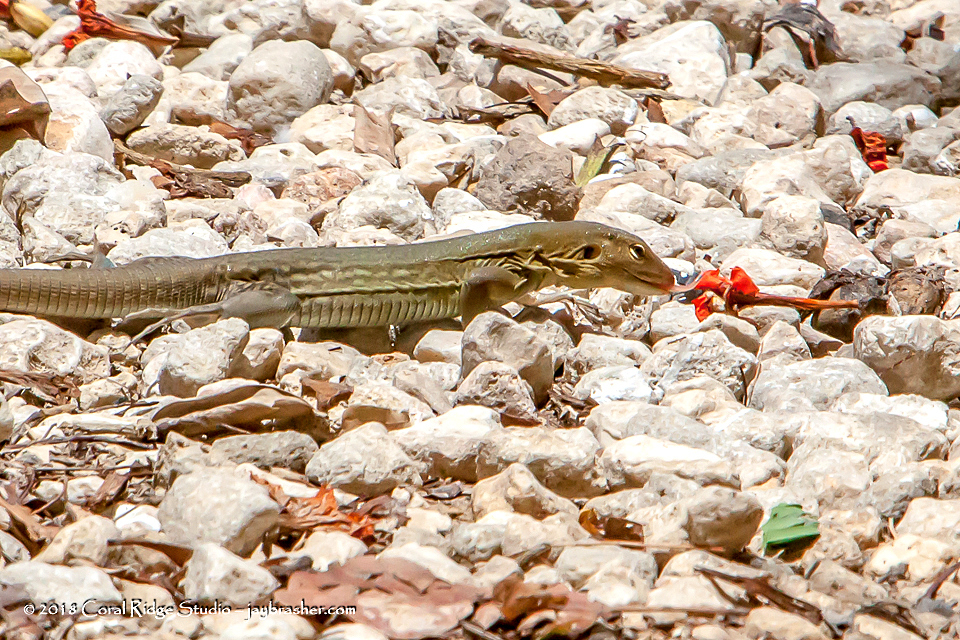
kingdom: Animalia
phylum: Chordata
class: Squamata
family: Teiidae
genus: Cnemidophorus
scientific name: Cnemidophorus ruthveni
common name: Bonaire whiptail
